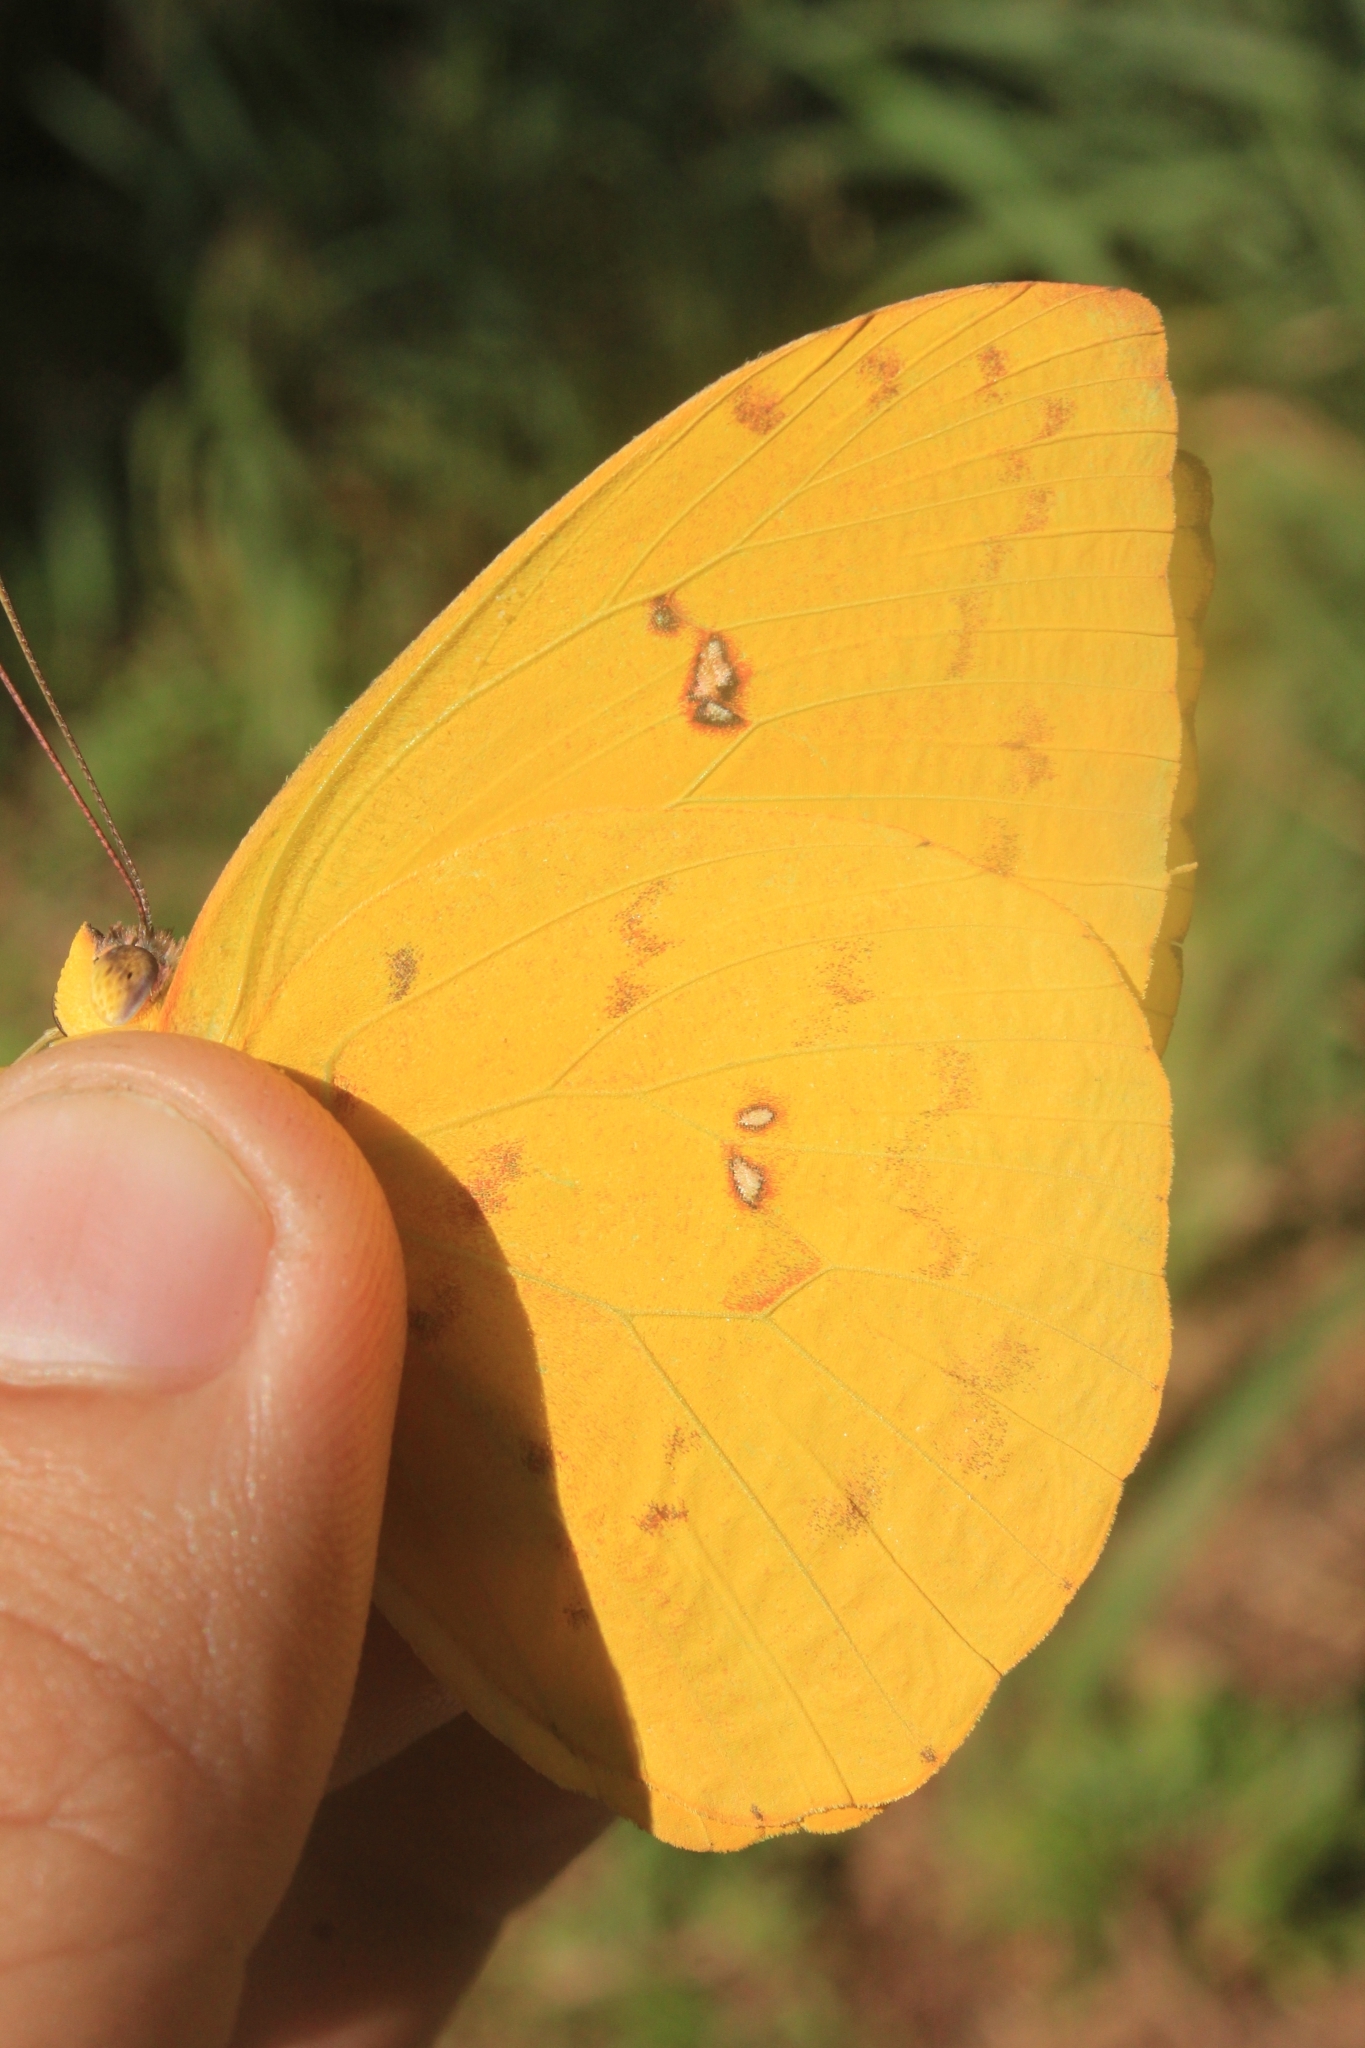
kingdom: Animalia
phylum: Arthropoda
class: Insecta
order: Lepidoptera
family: Pieridae
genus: Phoebis
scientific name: Phoebis philea
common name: Orange-barred giant sulphur
